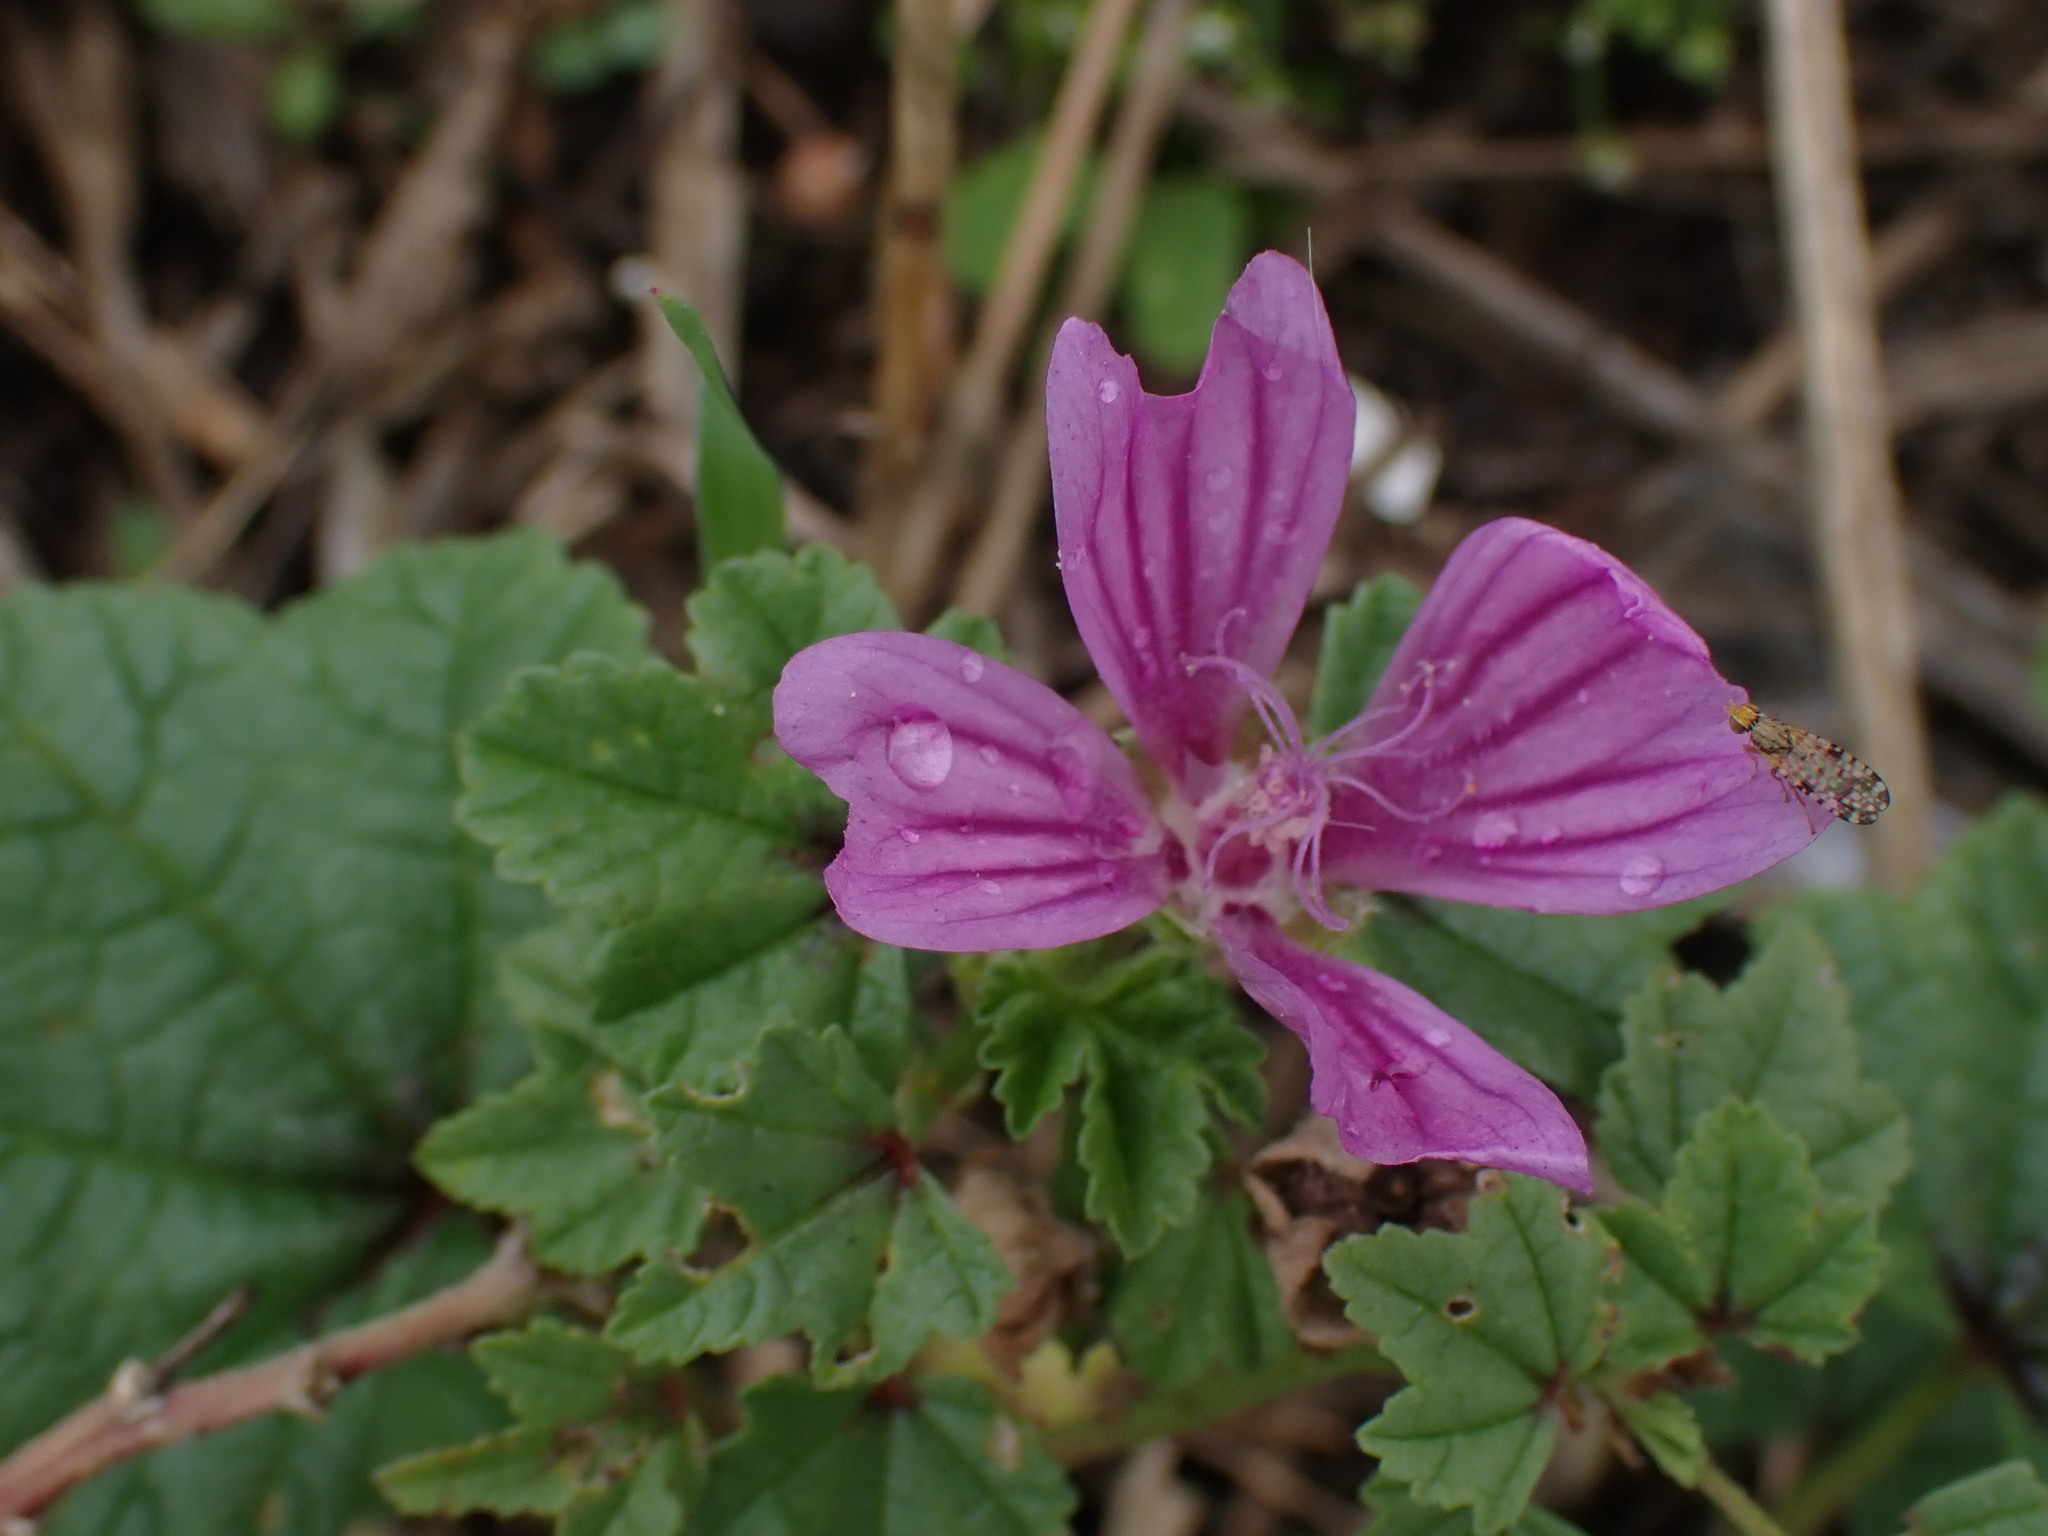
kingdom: Plantae
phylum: Tracheophyta
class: Magnoliopsida
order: Malvales
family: Malvaceae
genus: Malva
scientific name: Malva sylvestris
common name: Common mallow
